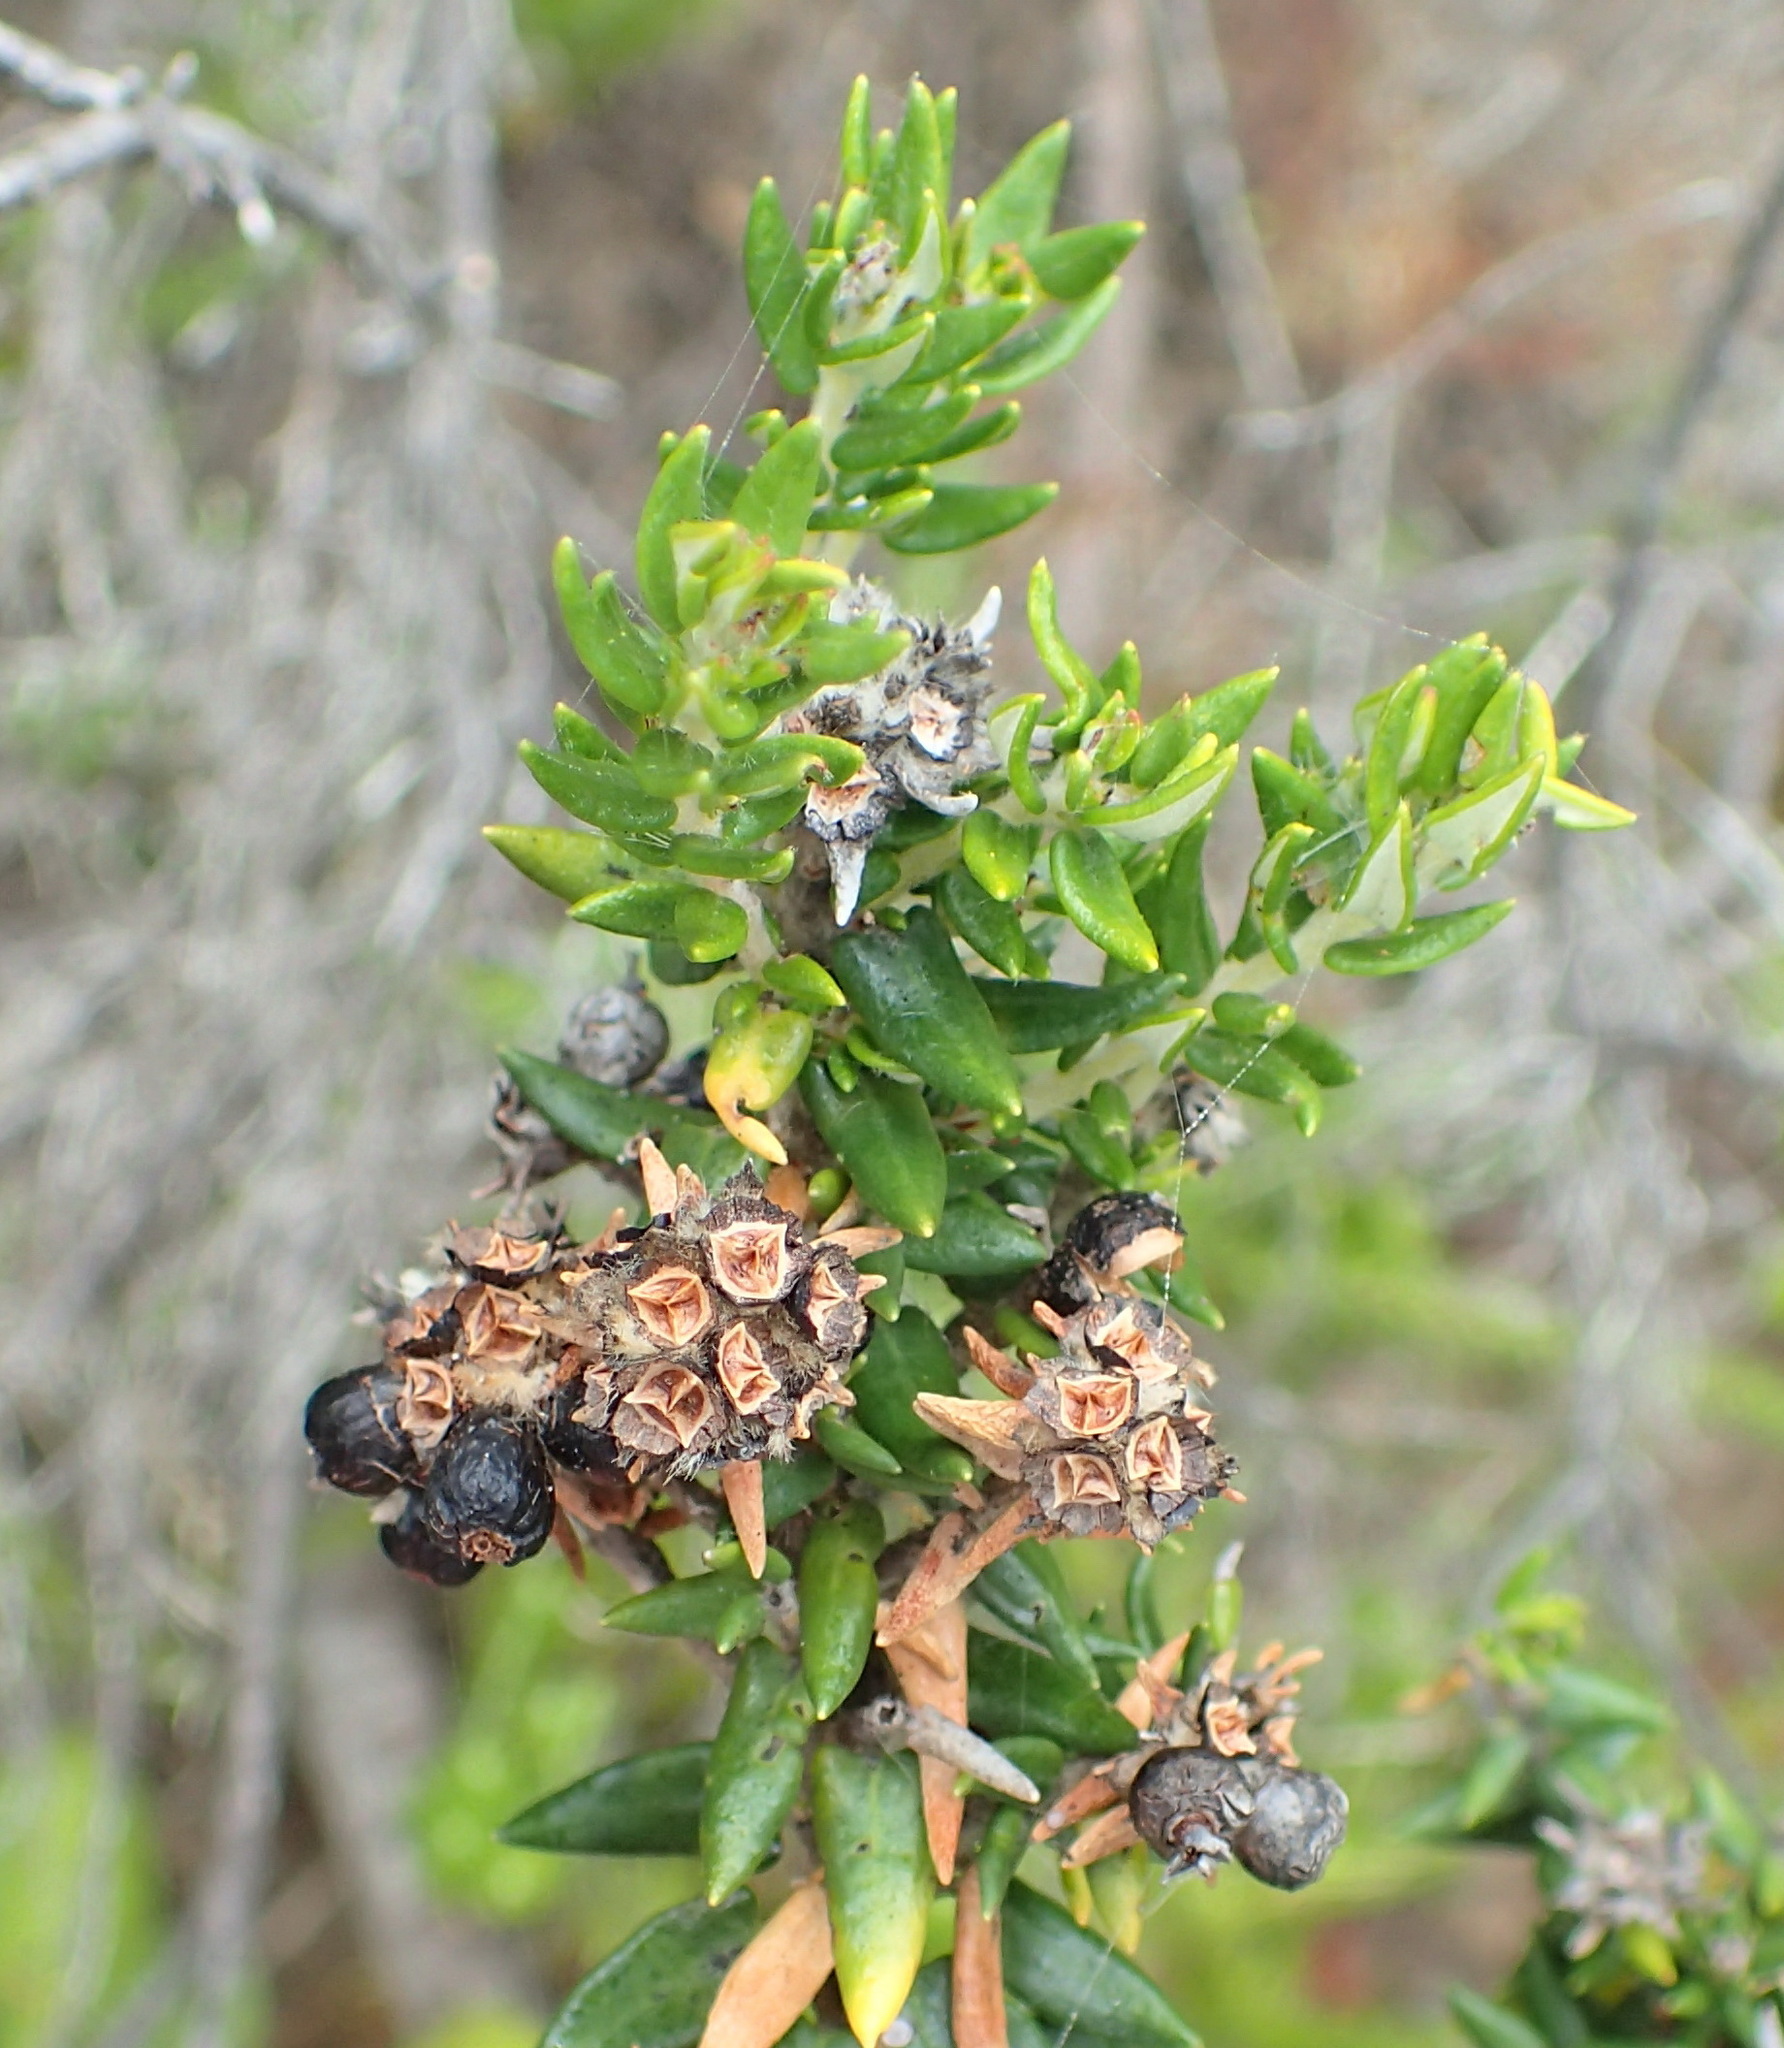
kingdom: Plantae
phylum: Tracheophyta
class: Magnoliopsida
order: Rosales
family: Rhamnaceae
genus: Phylica
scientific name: Phylica litoralis
